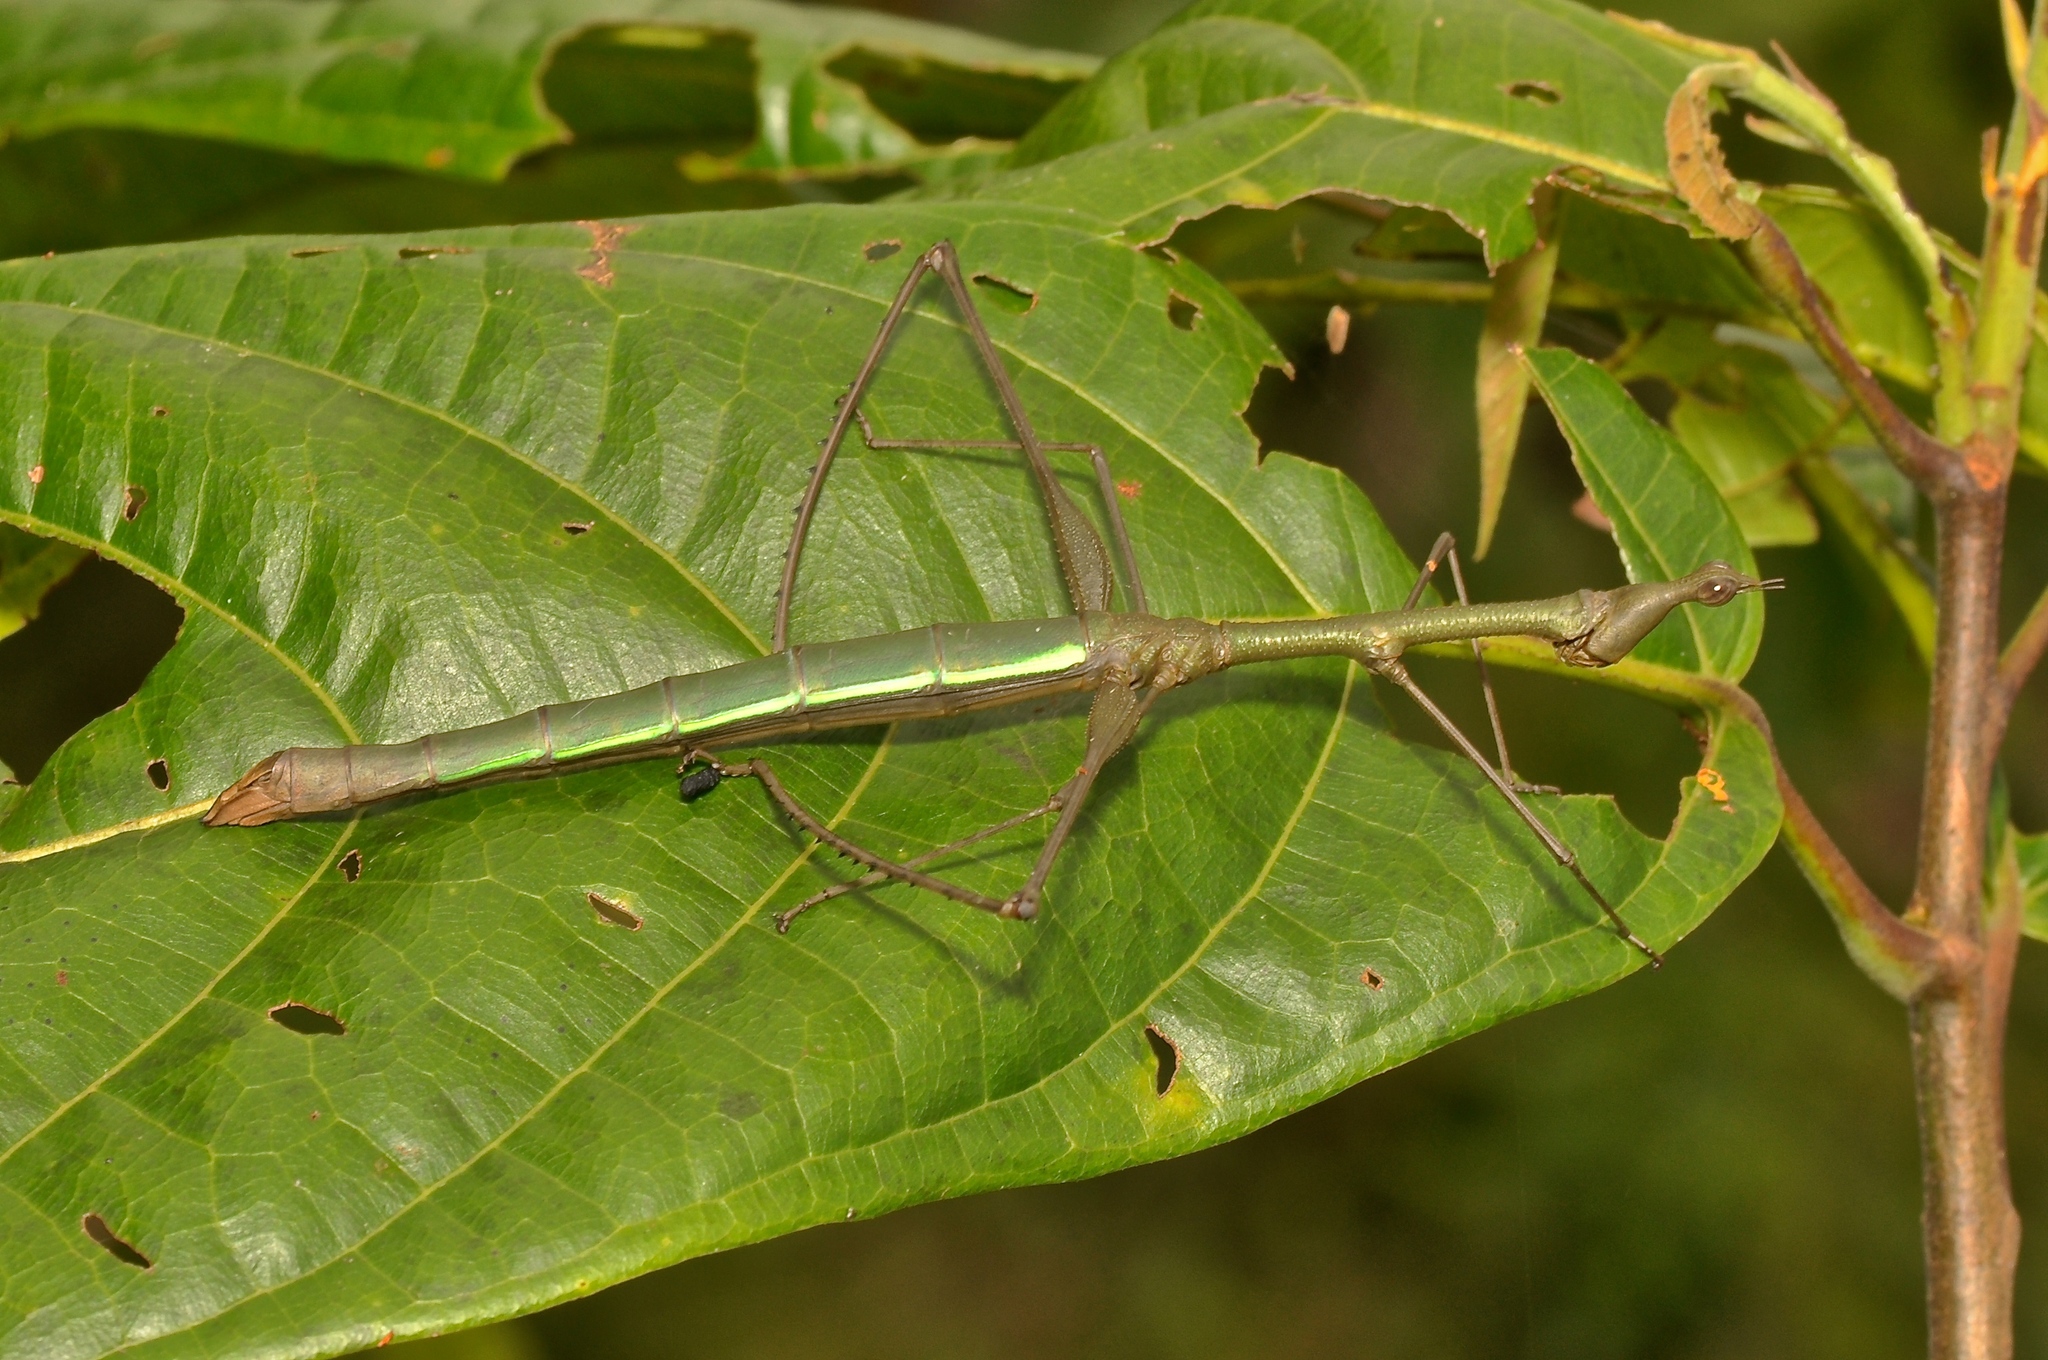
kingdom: Animalia
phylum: Arthropoda
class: Insecta
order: Orthoptera
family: Proscopiidae
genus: Apioscelis
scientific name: Apioscelis tuberculata
